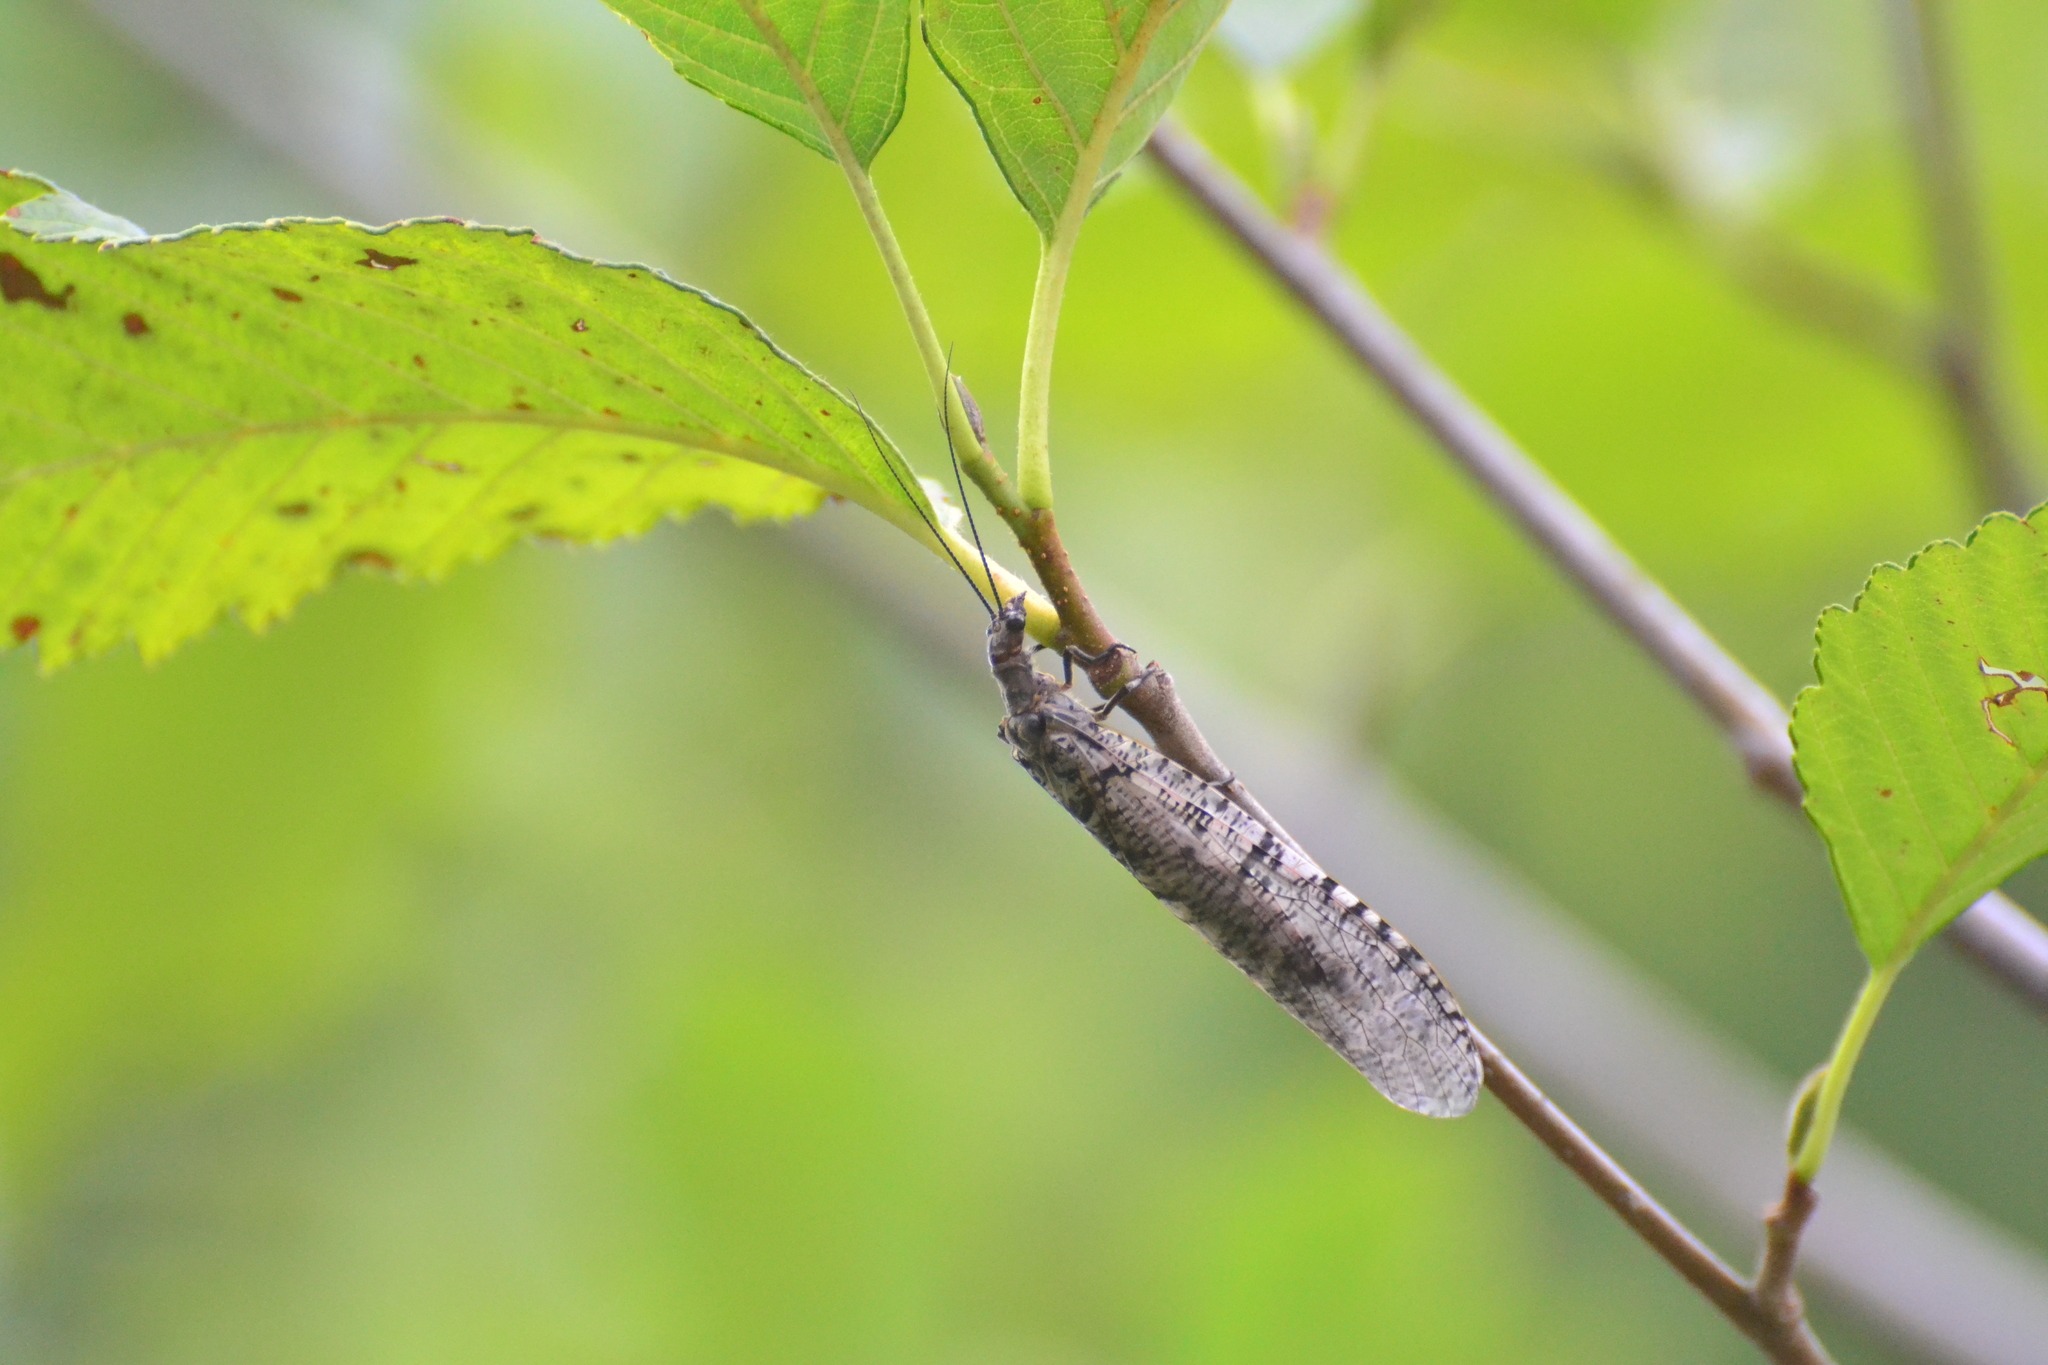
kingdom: Animalia
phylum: Arthropoda
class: Insecta
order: Megaloptera
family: Corydalidae
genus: Protochauliodes
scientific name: Protochauliodes spenceri
